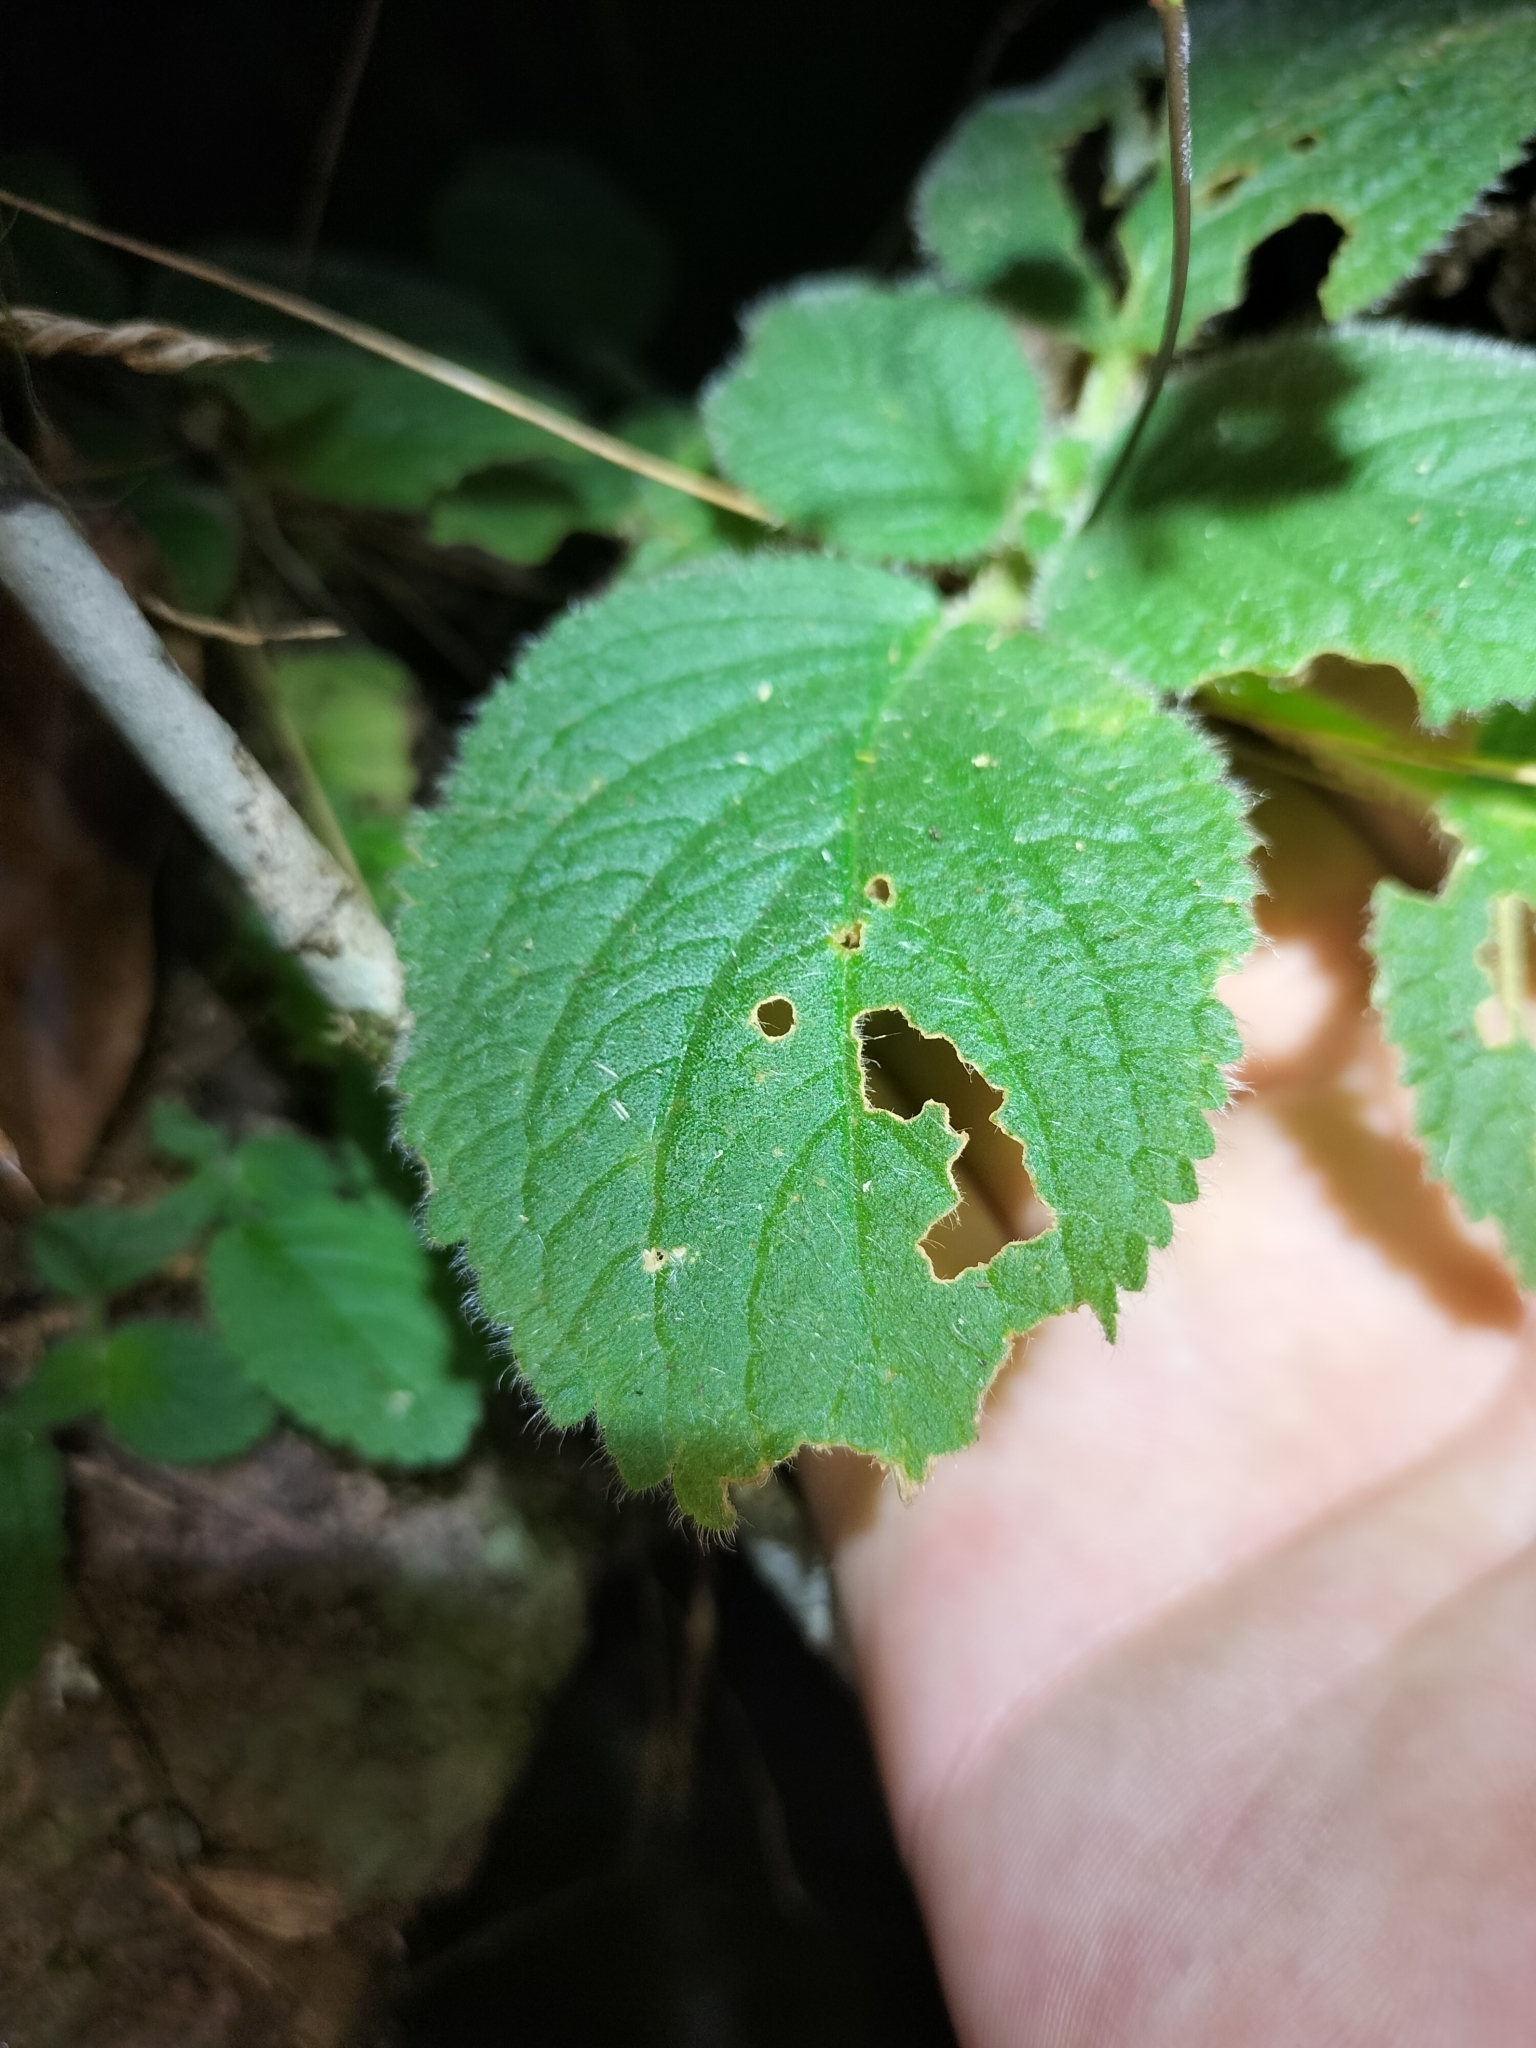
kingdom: Plantae
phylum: Tracheophyta
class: Magnoliopsida
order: Lamiales
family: Gesneriaceae
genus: Boea
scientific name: Boea hygroscopica
